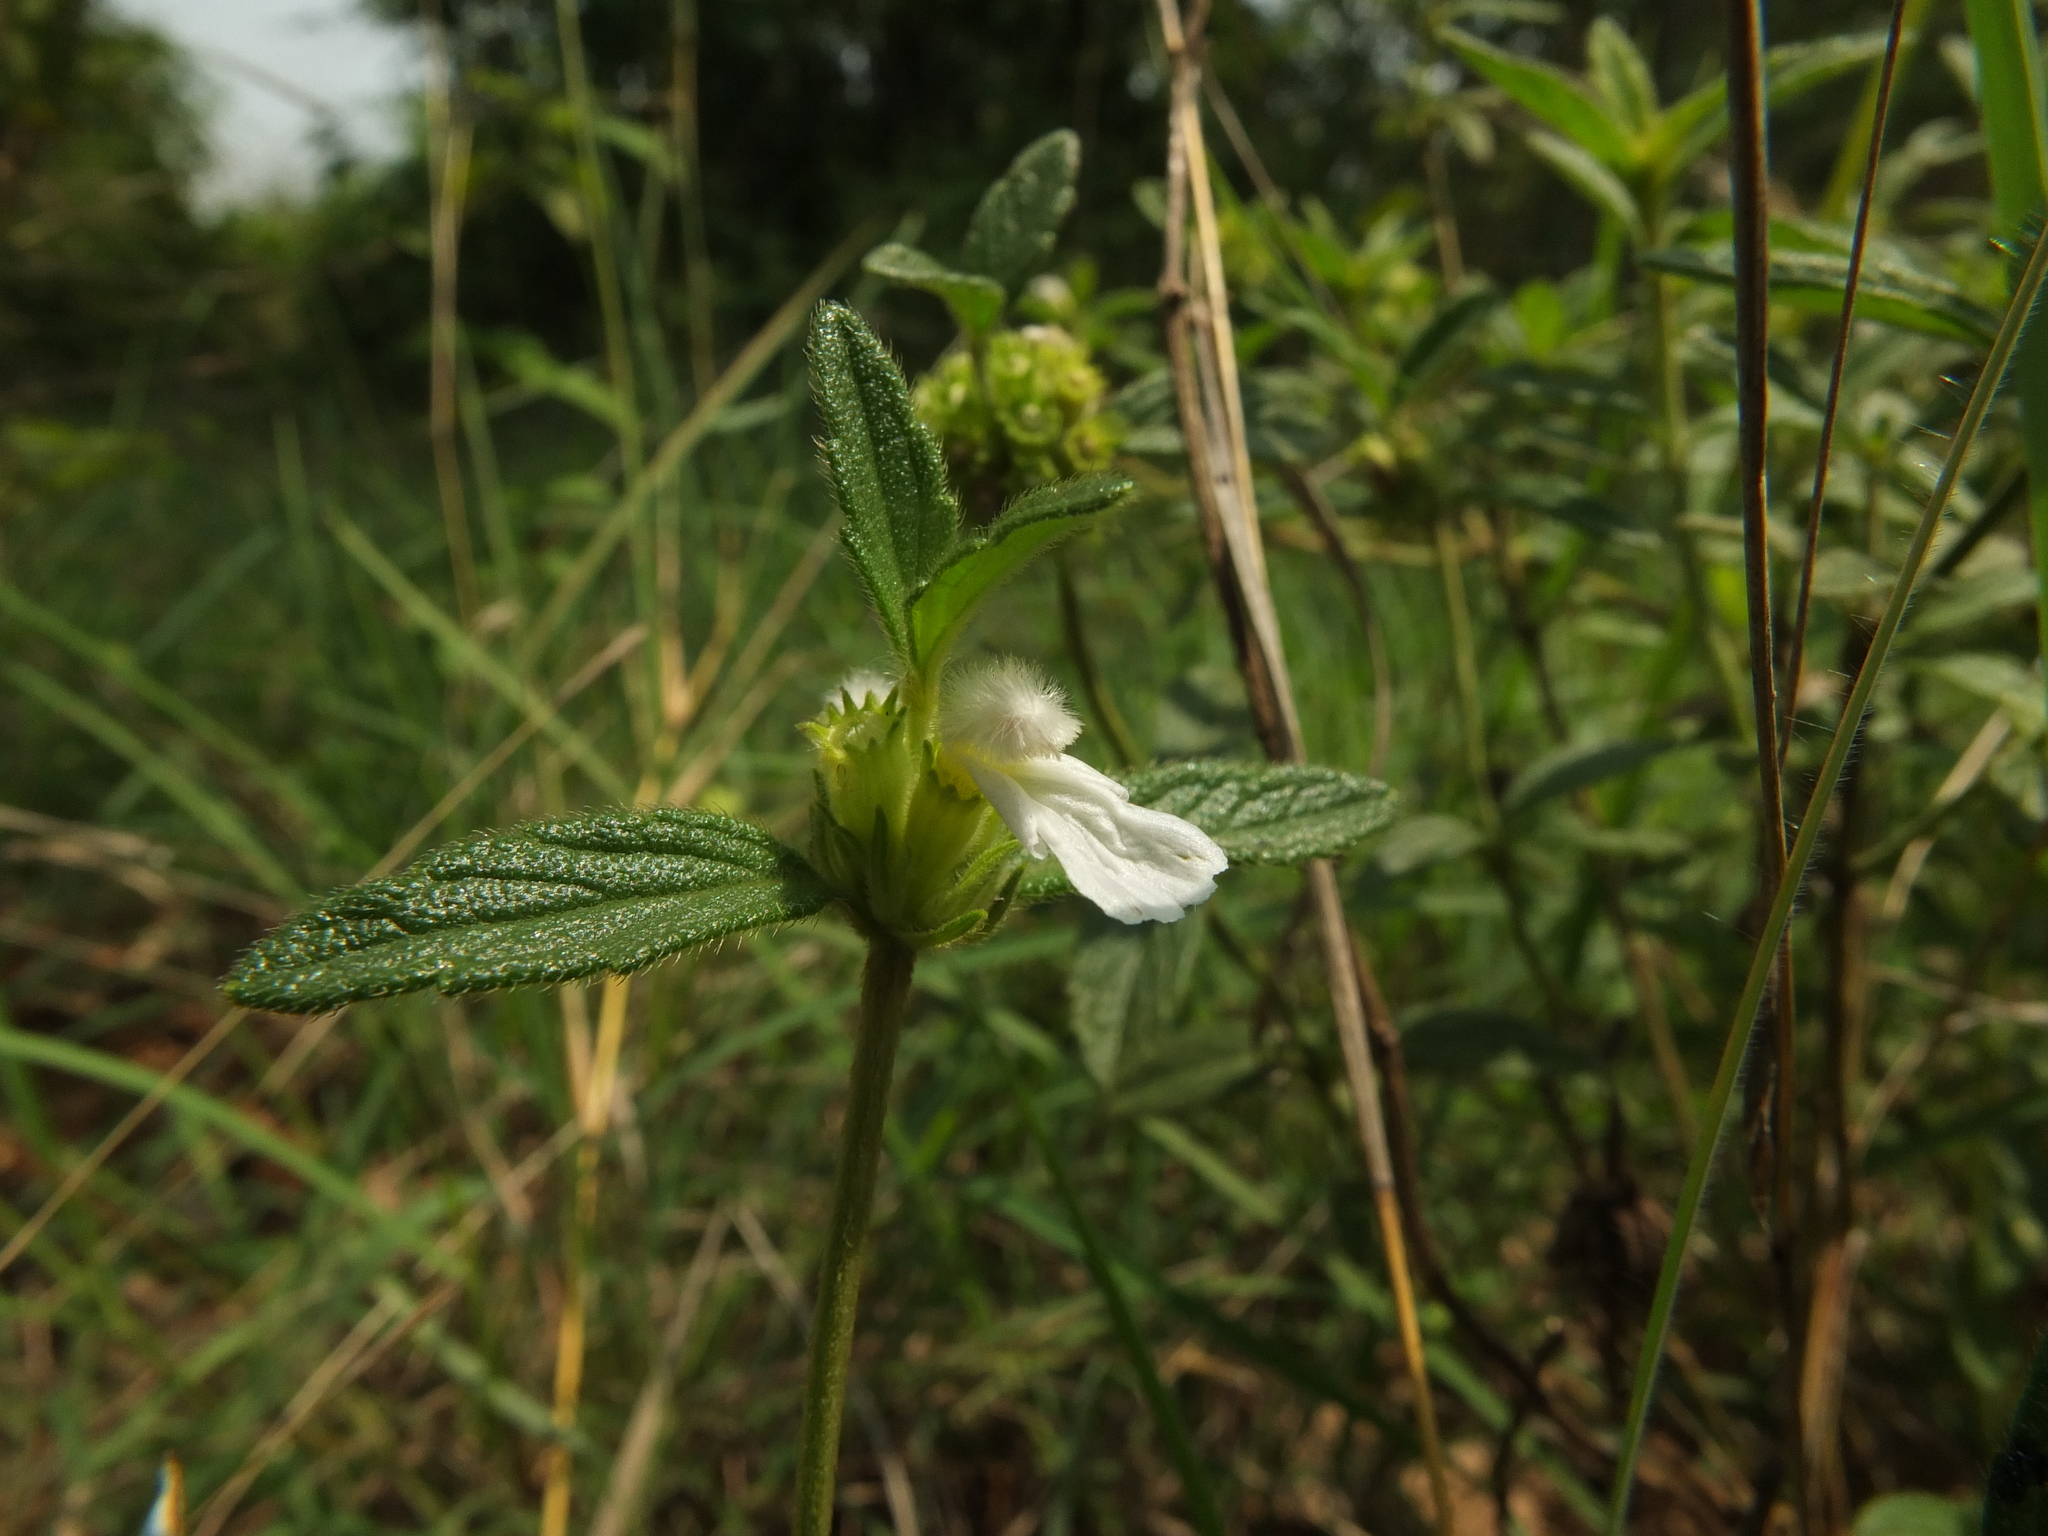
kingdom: Plantae
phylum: Tracheophyta
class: Magnoliopsida
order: Lamiales
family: Lamiaceae
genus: Leucas
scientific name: Leucas hirta
